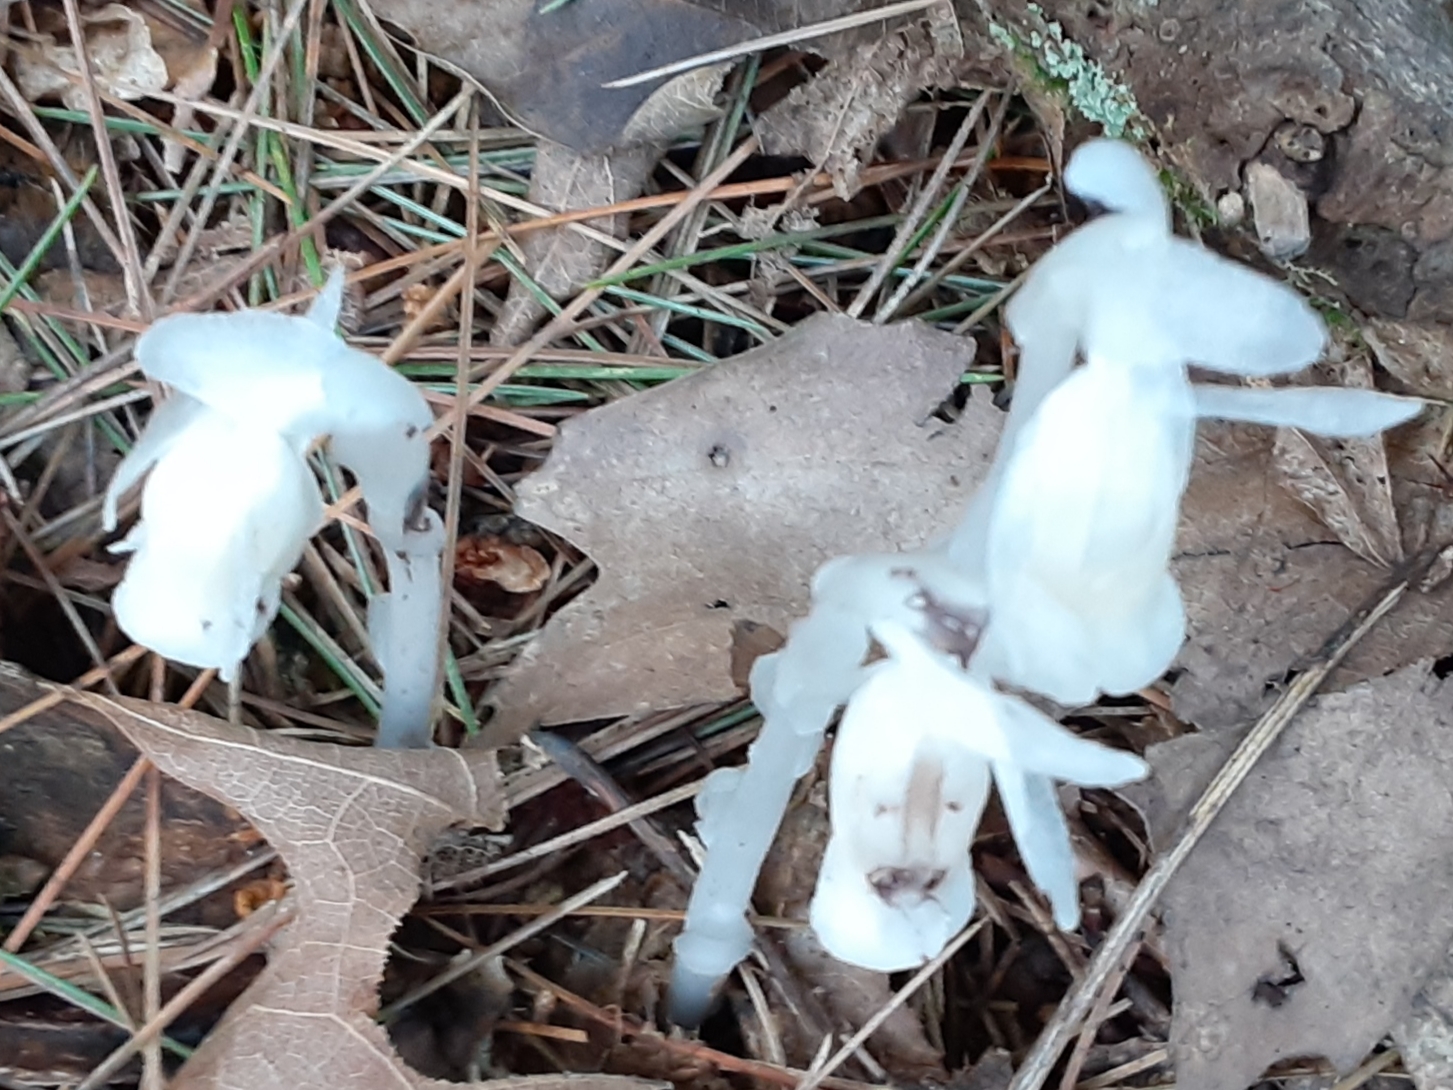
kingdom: Plantae
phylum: Tracheophyta
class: Magnoliopsida
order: Ericales
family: Ericaceae
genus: Monotropa
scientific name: Monotropa uniflora
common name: Convulsion root
